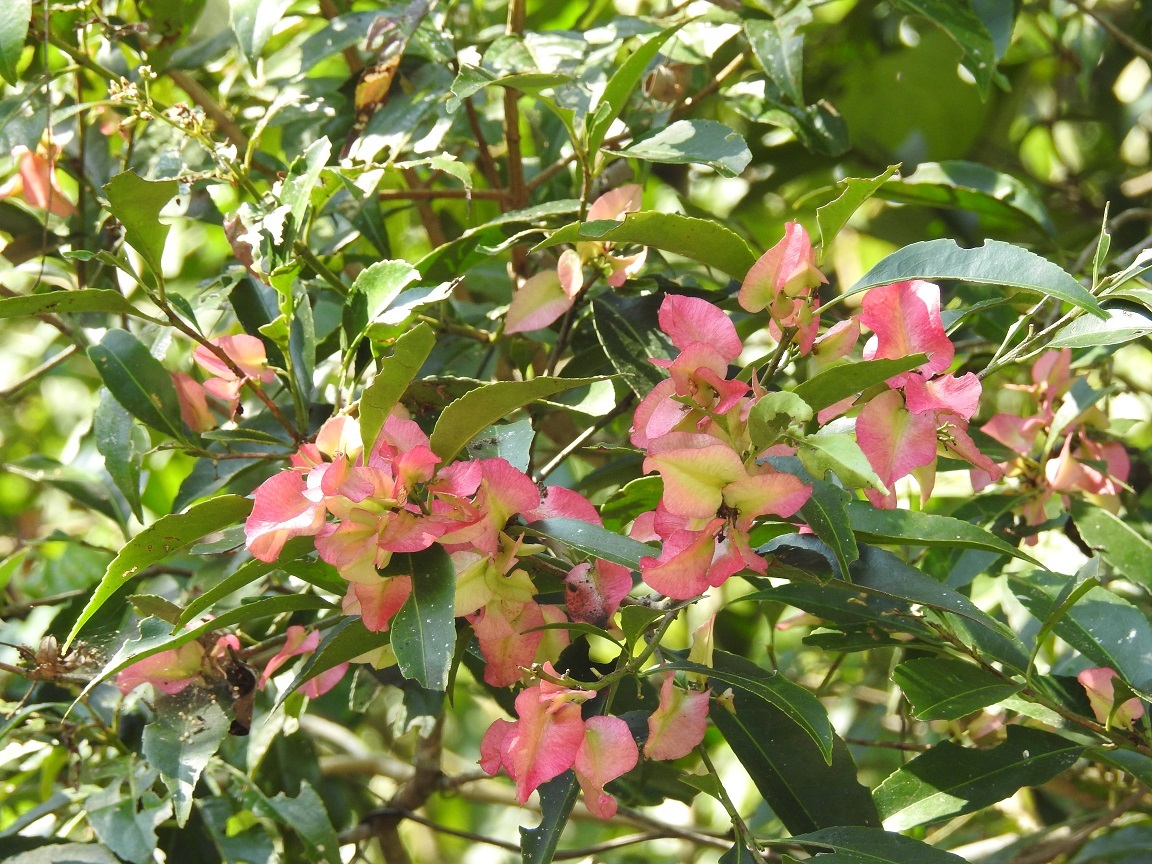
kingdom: Plantae
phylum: Tracheophyta
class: Magnoliopsida
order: Celastrales
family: Celastraceae
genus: Wimmeria
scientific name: Wimmeria bartlettii
